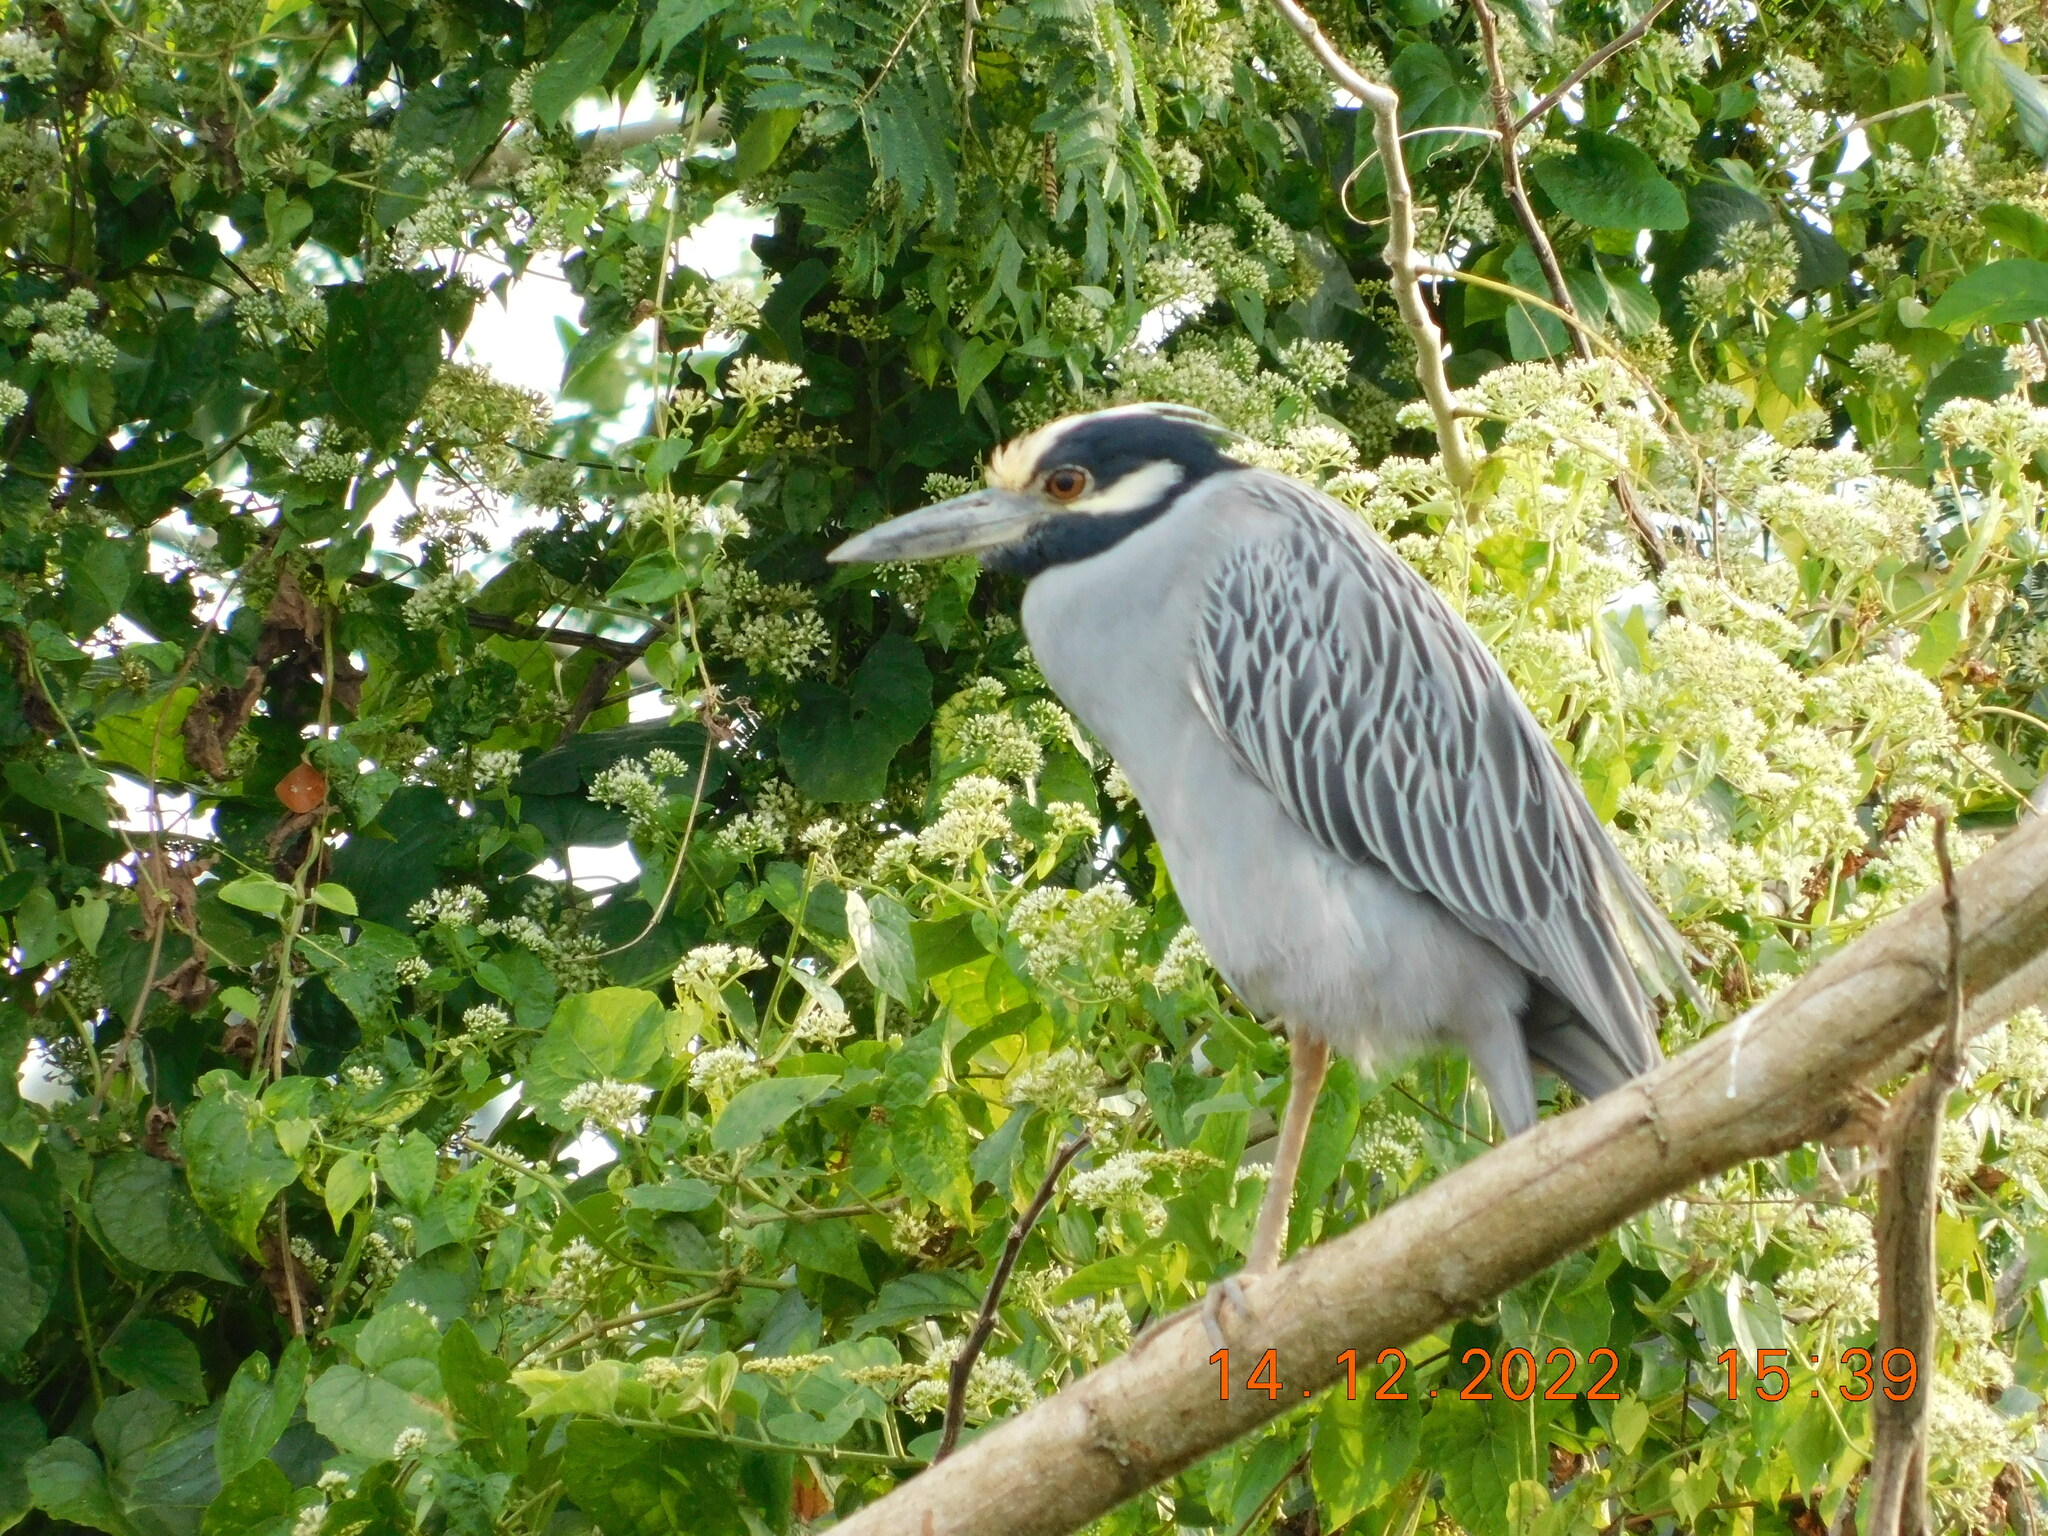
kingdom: Animalia
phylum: Chordata
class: Aves
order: Pelecaniformes
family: Ardeidae
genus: Nyctanassa
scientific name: Nyctanassa violacea
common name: Yellow-crowned night heron
